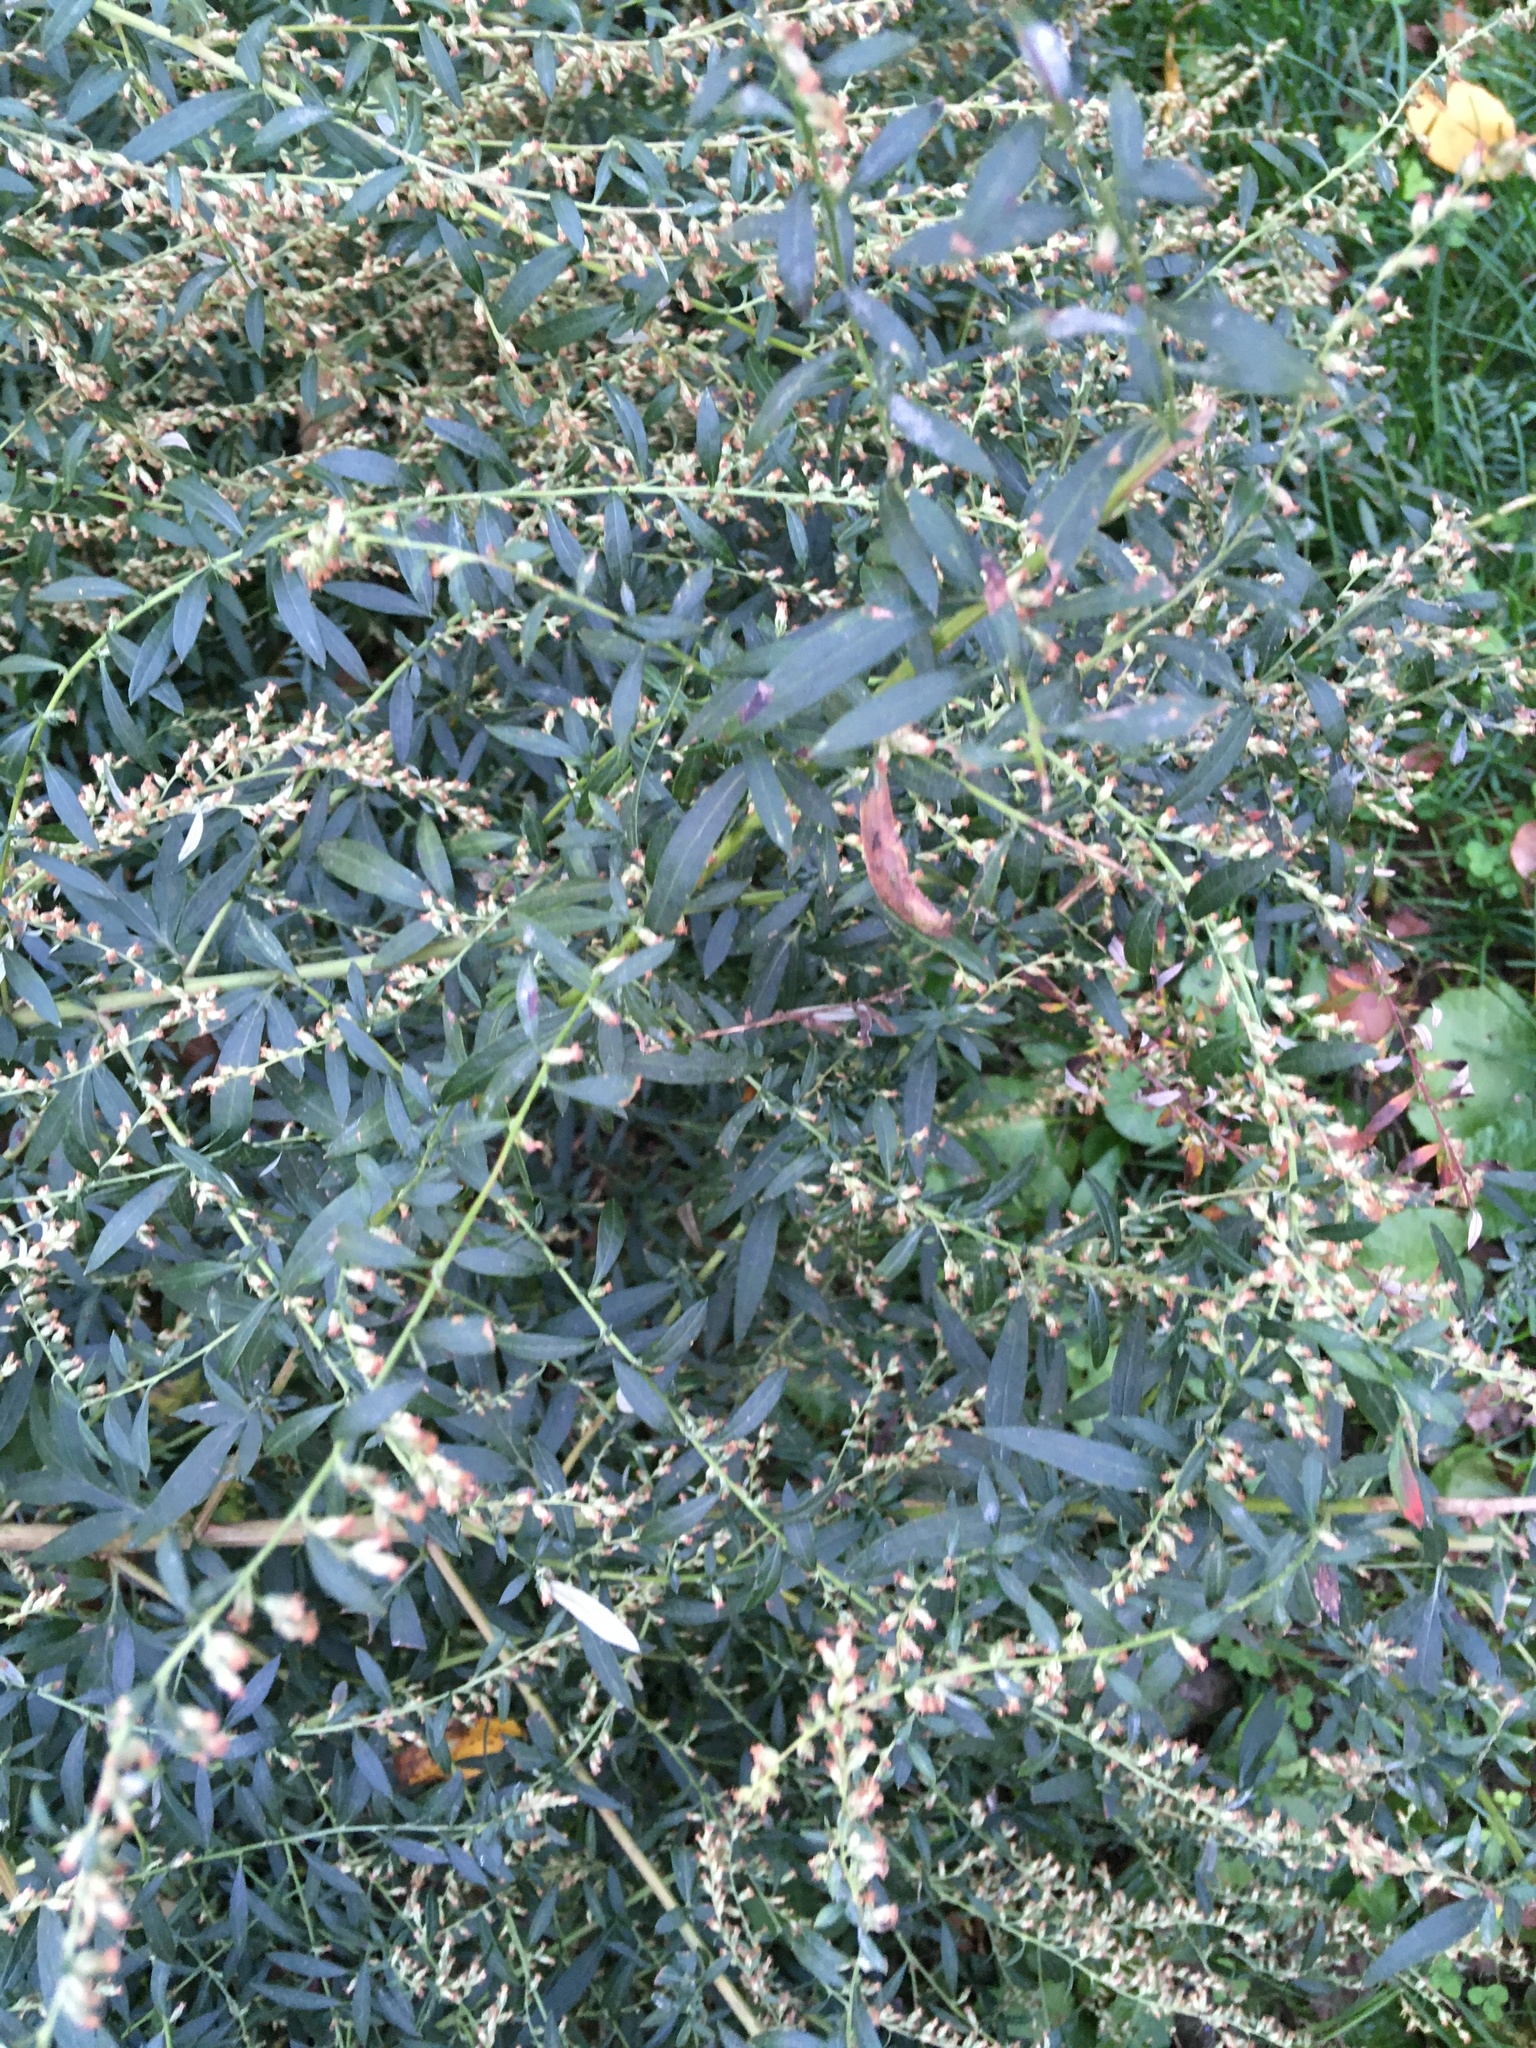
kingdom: Plantae
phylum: Tracheophyta
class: Magnoliopsida
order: Asterales
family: Asteraceae
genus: Artemisia
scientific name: Artemisia vulgaris
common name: Mugwort
